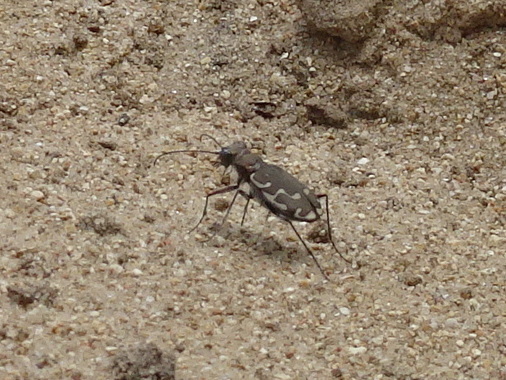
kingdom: Animalia
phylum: Arthropoda
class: Insecta
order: Coleoptera
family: Carabidae
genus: Cicindela
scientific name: Cicindela repanda
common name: Bronzed tiger beetle
